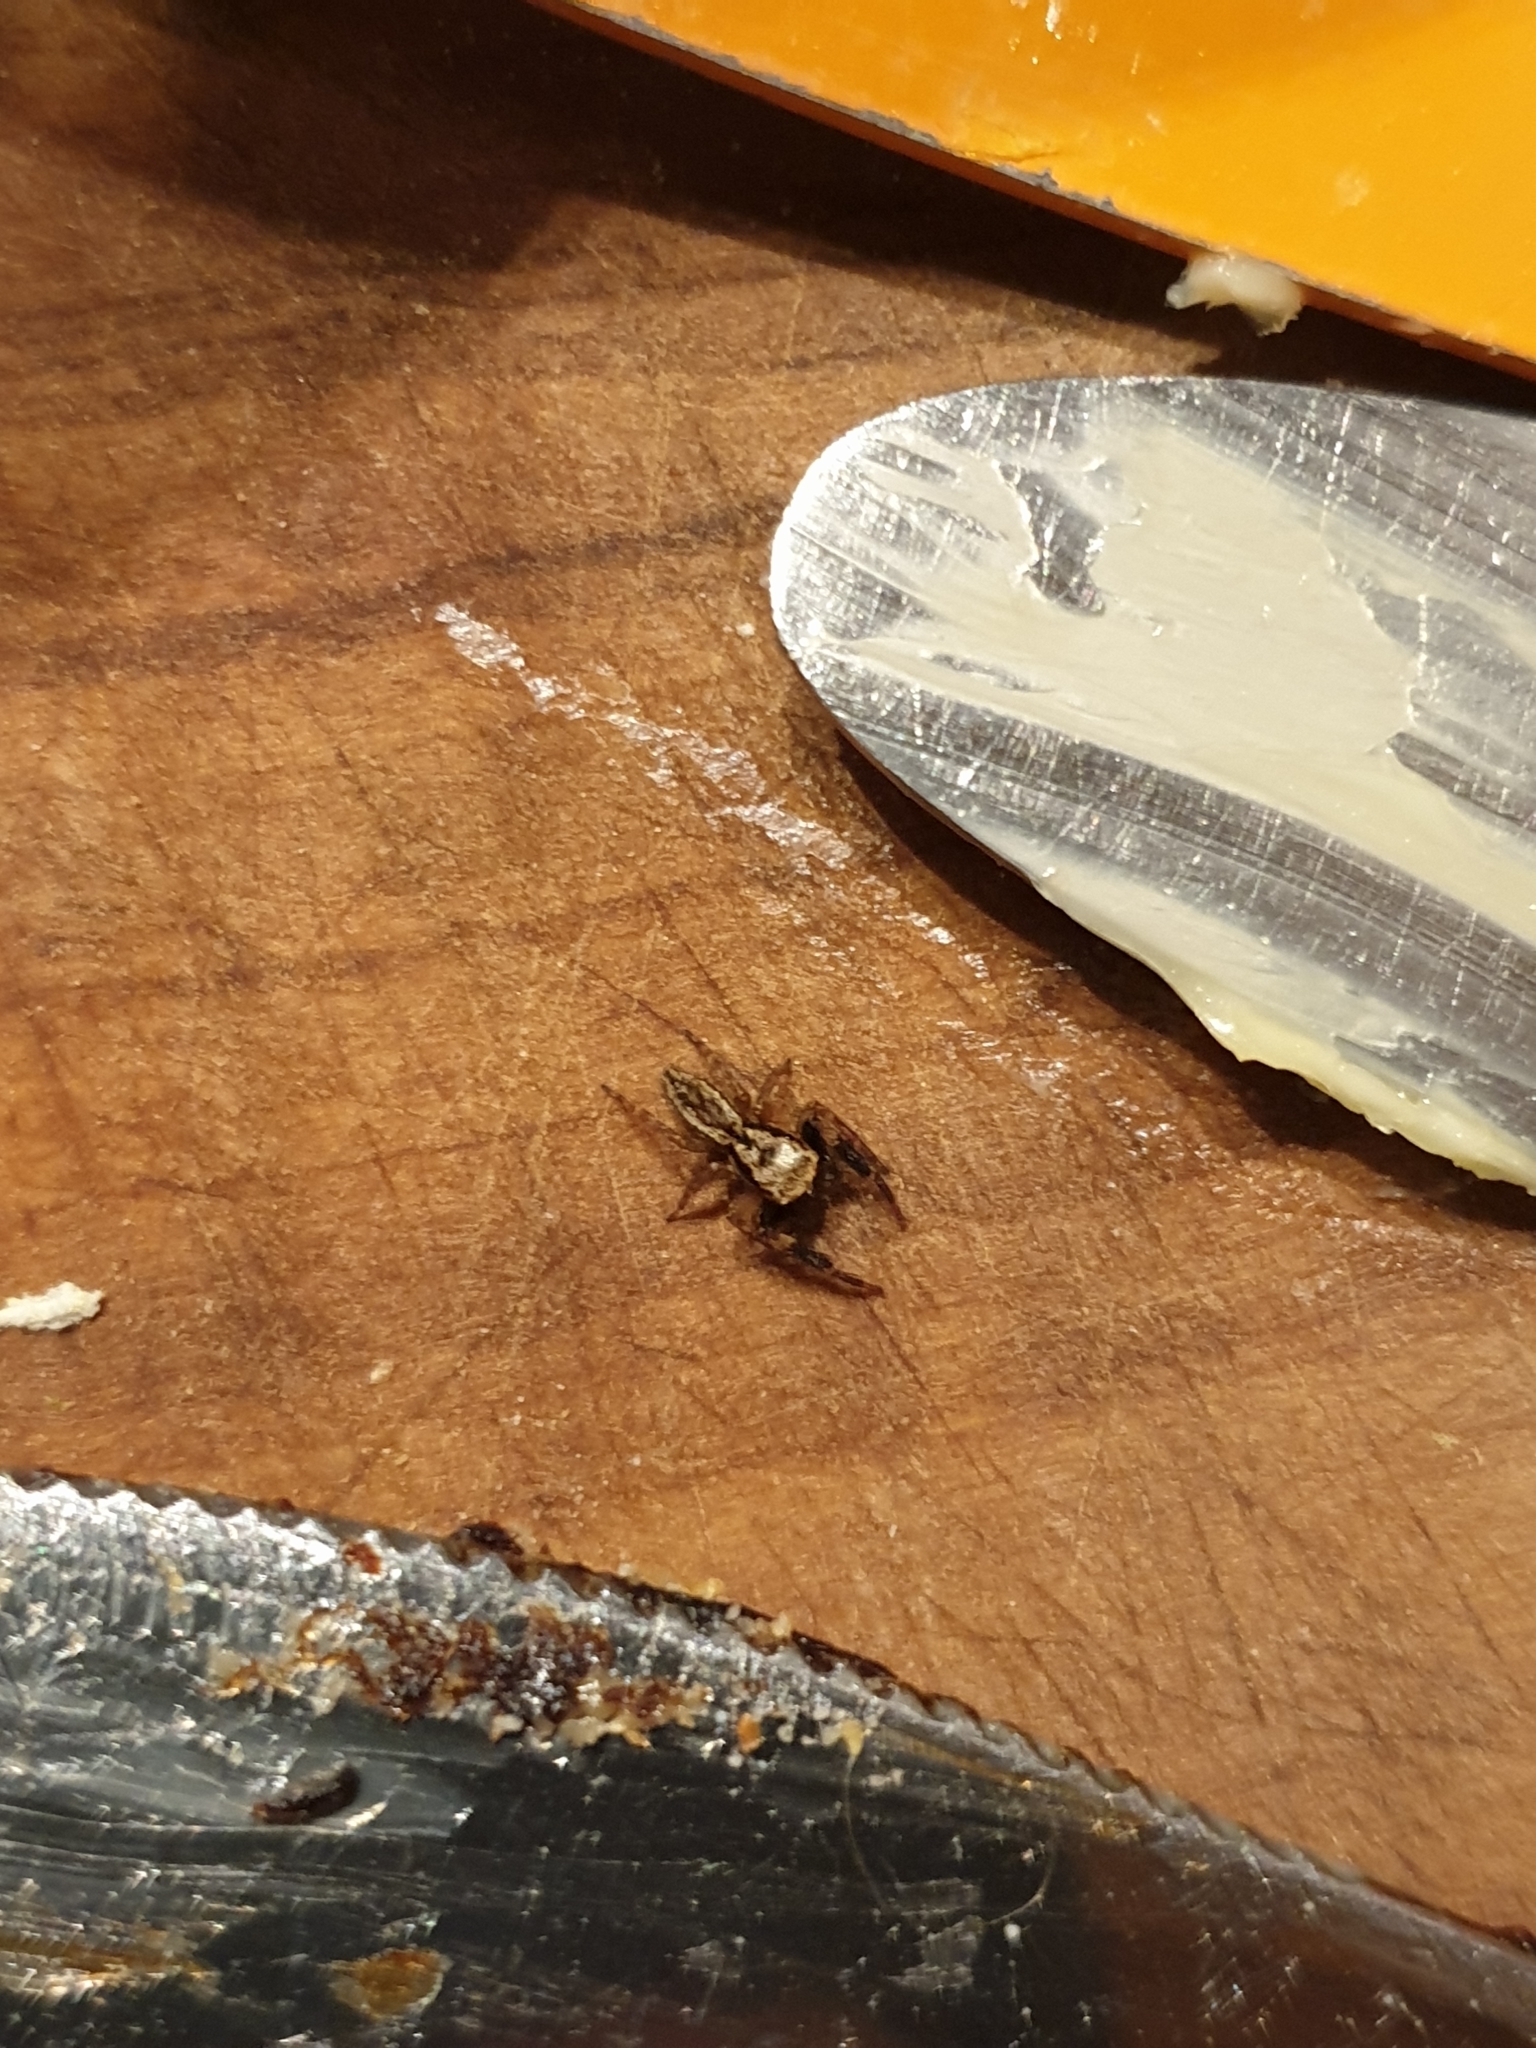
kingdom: Animalia
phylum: Arthropoda
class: Arachnida
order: Araneae
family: Salticidae
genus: Trite
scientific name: Trite auricoma
